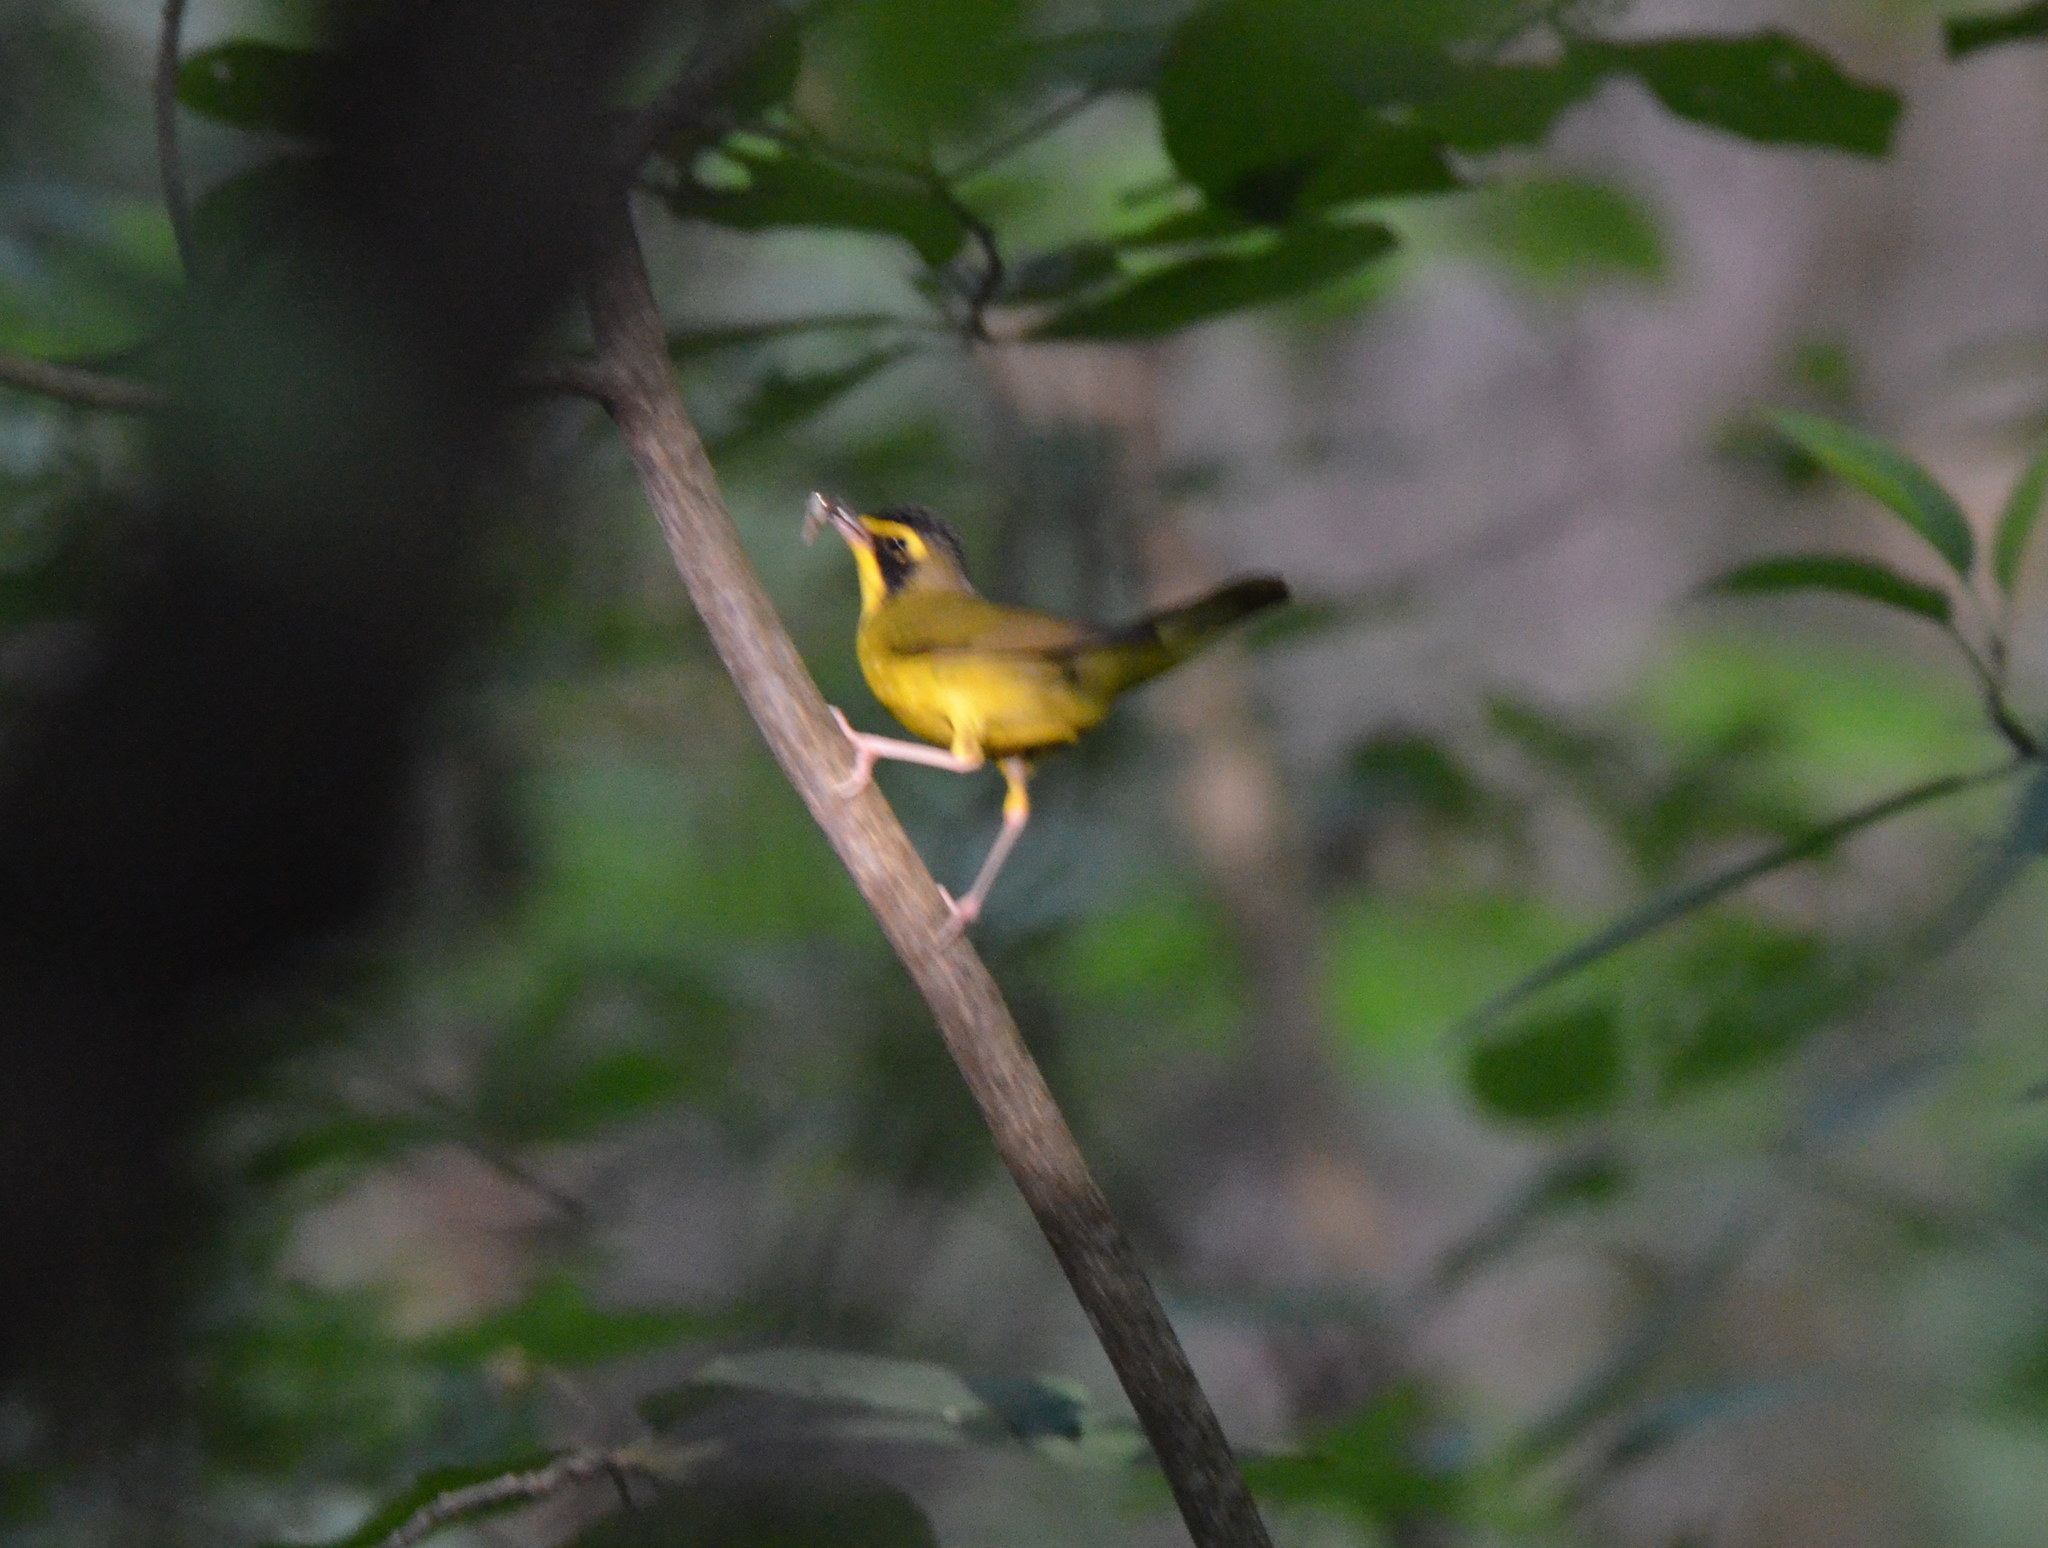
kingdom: Animalia
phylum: Chordata
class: Aves
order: Passeriformes
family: Parulidae
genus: Geothlypis
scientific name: Geothlypis formosa
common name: Kentucky warbler
